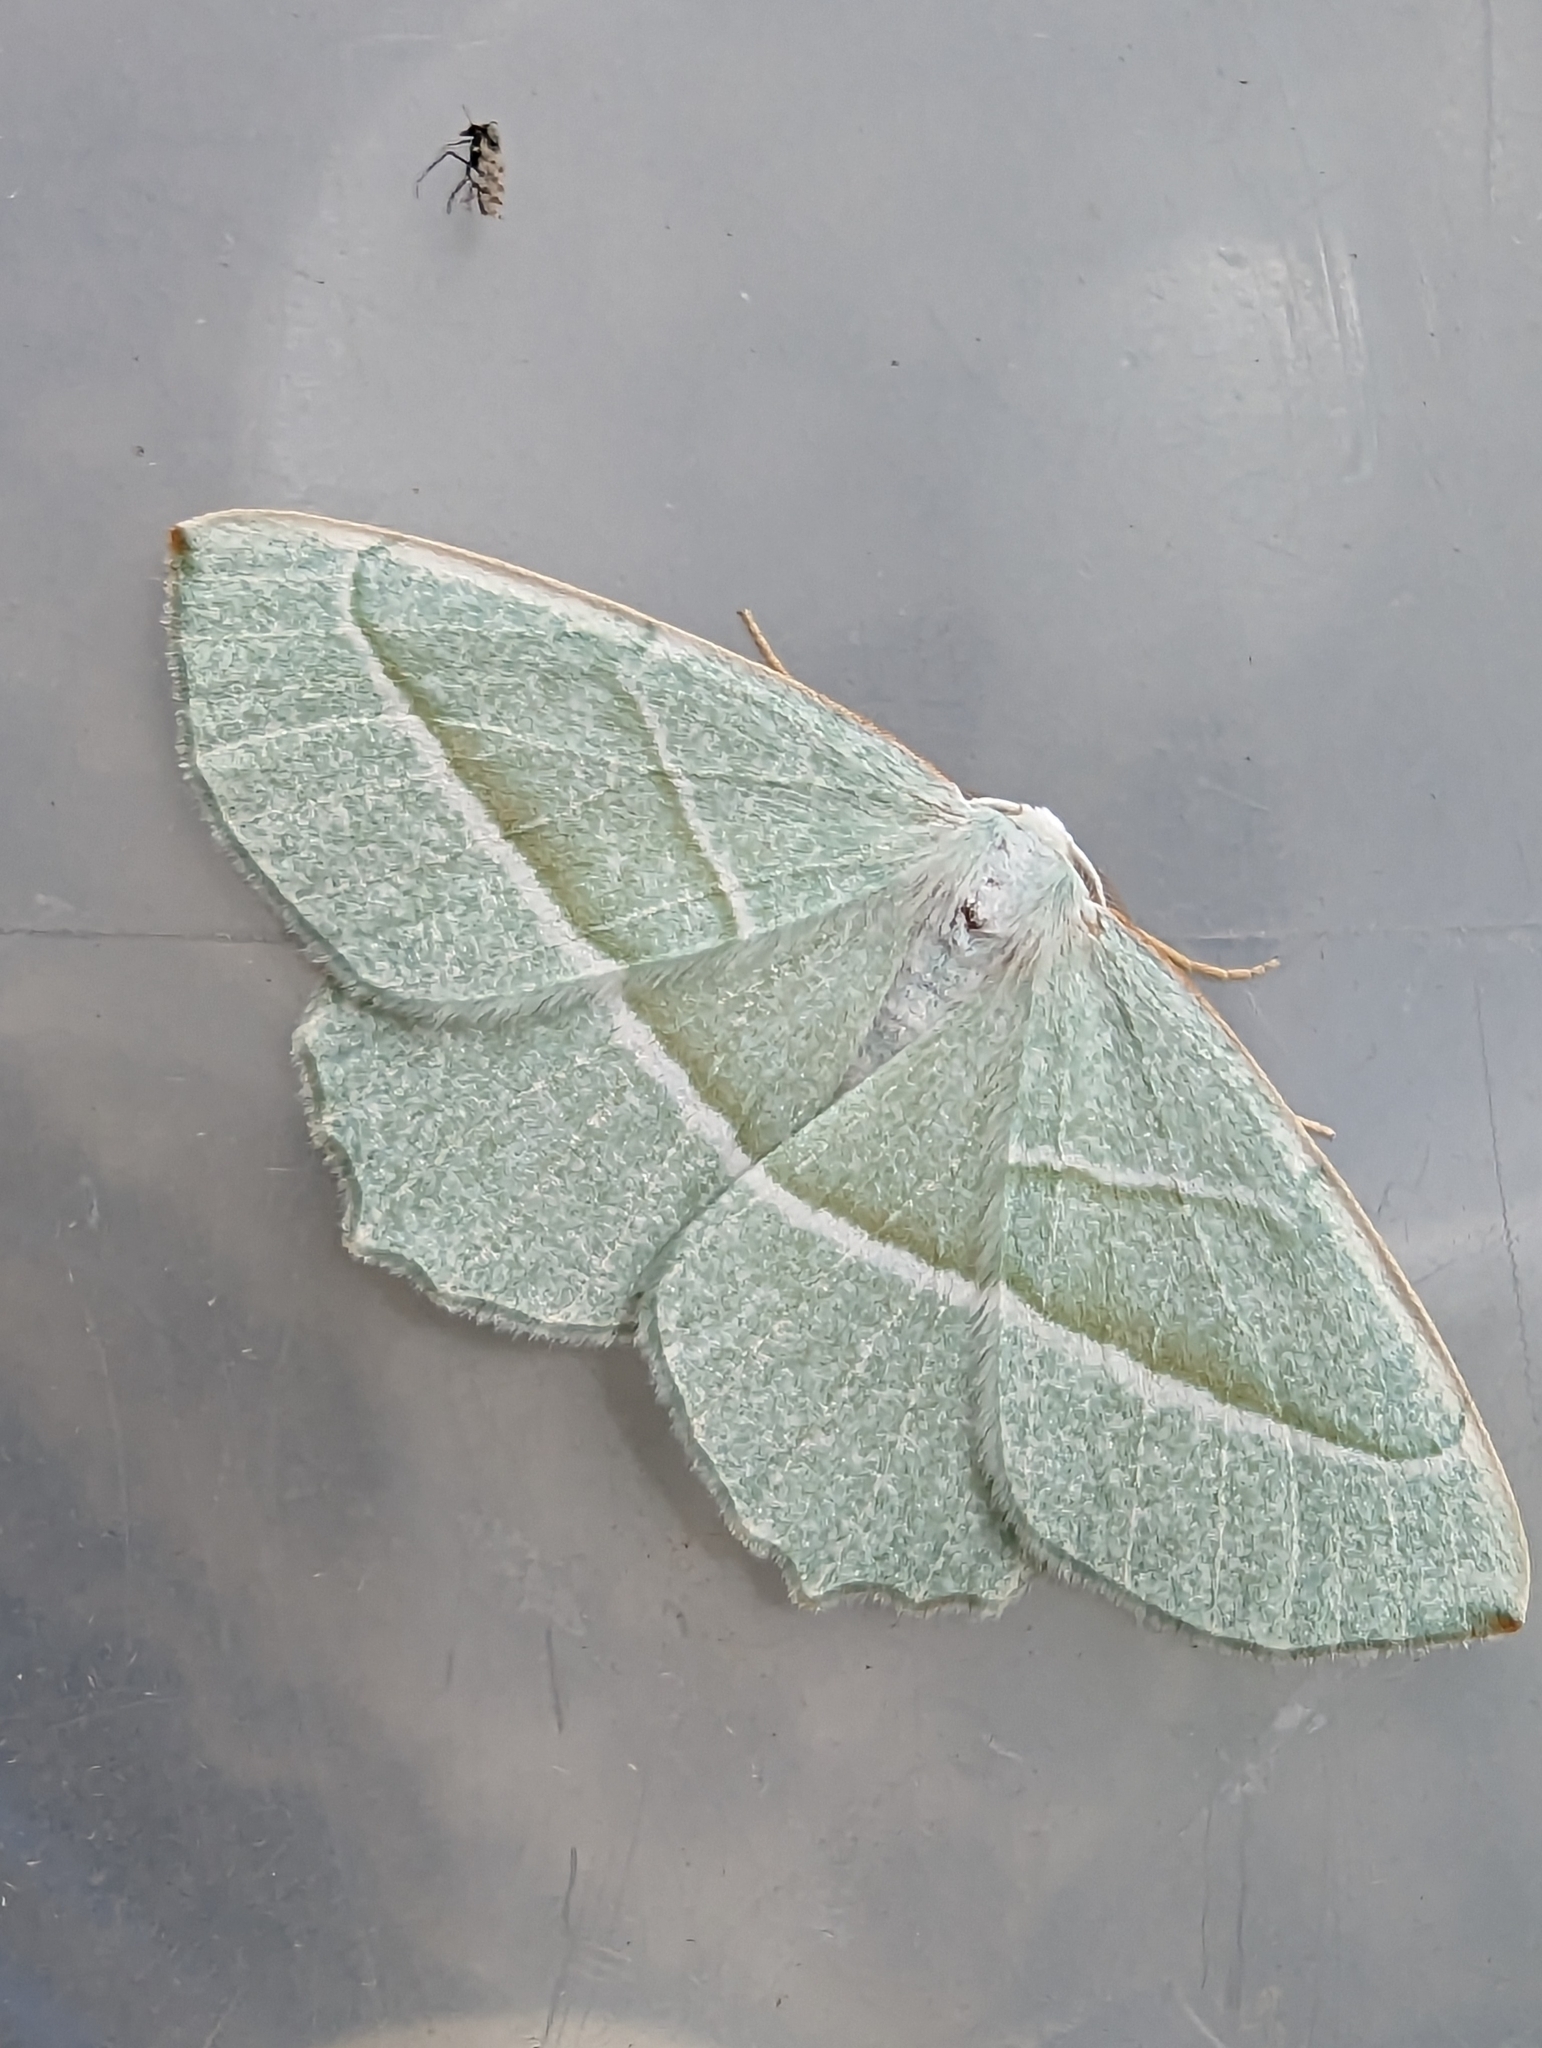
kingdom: Animalia
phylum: Arthropoda
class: Insecta
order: Lepidoptera
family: Geometridae
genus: Campaea
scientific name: Campaea margaritaria
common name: Light emerald
